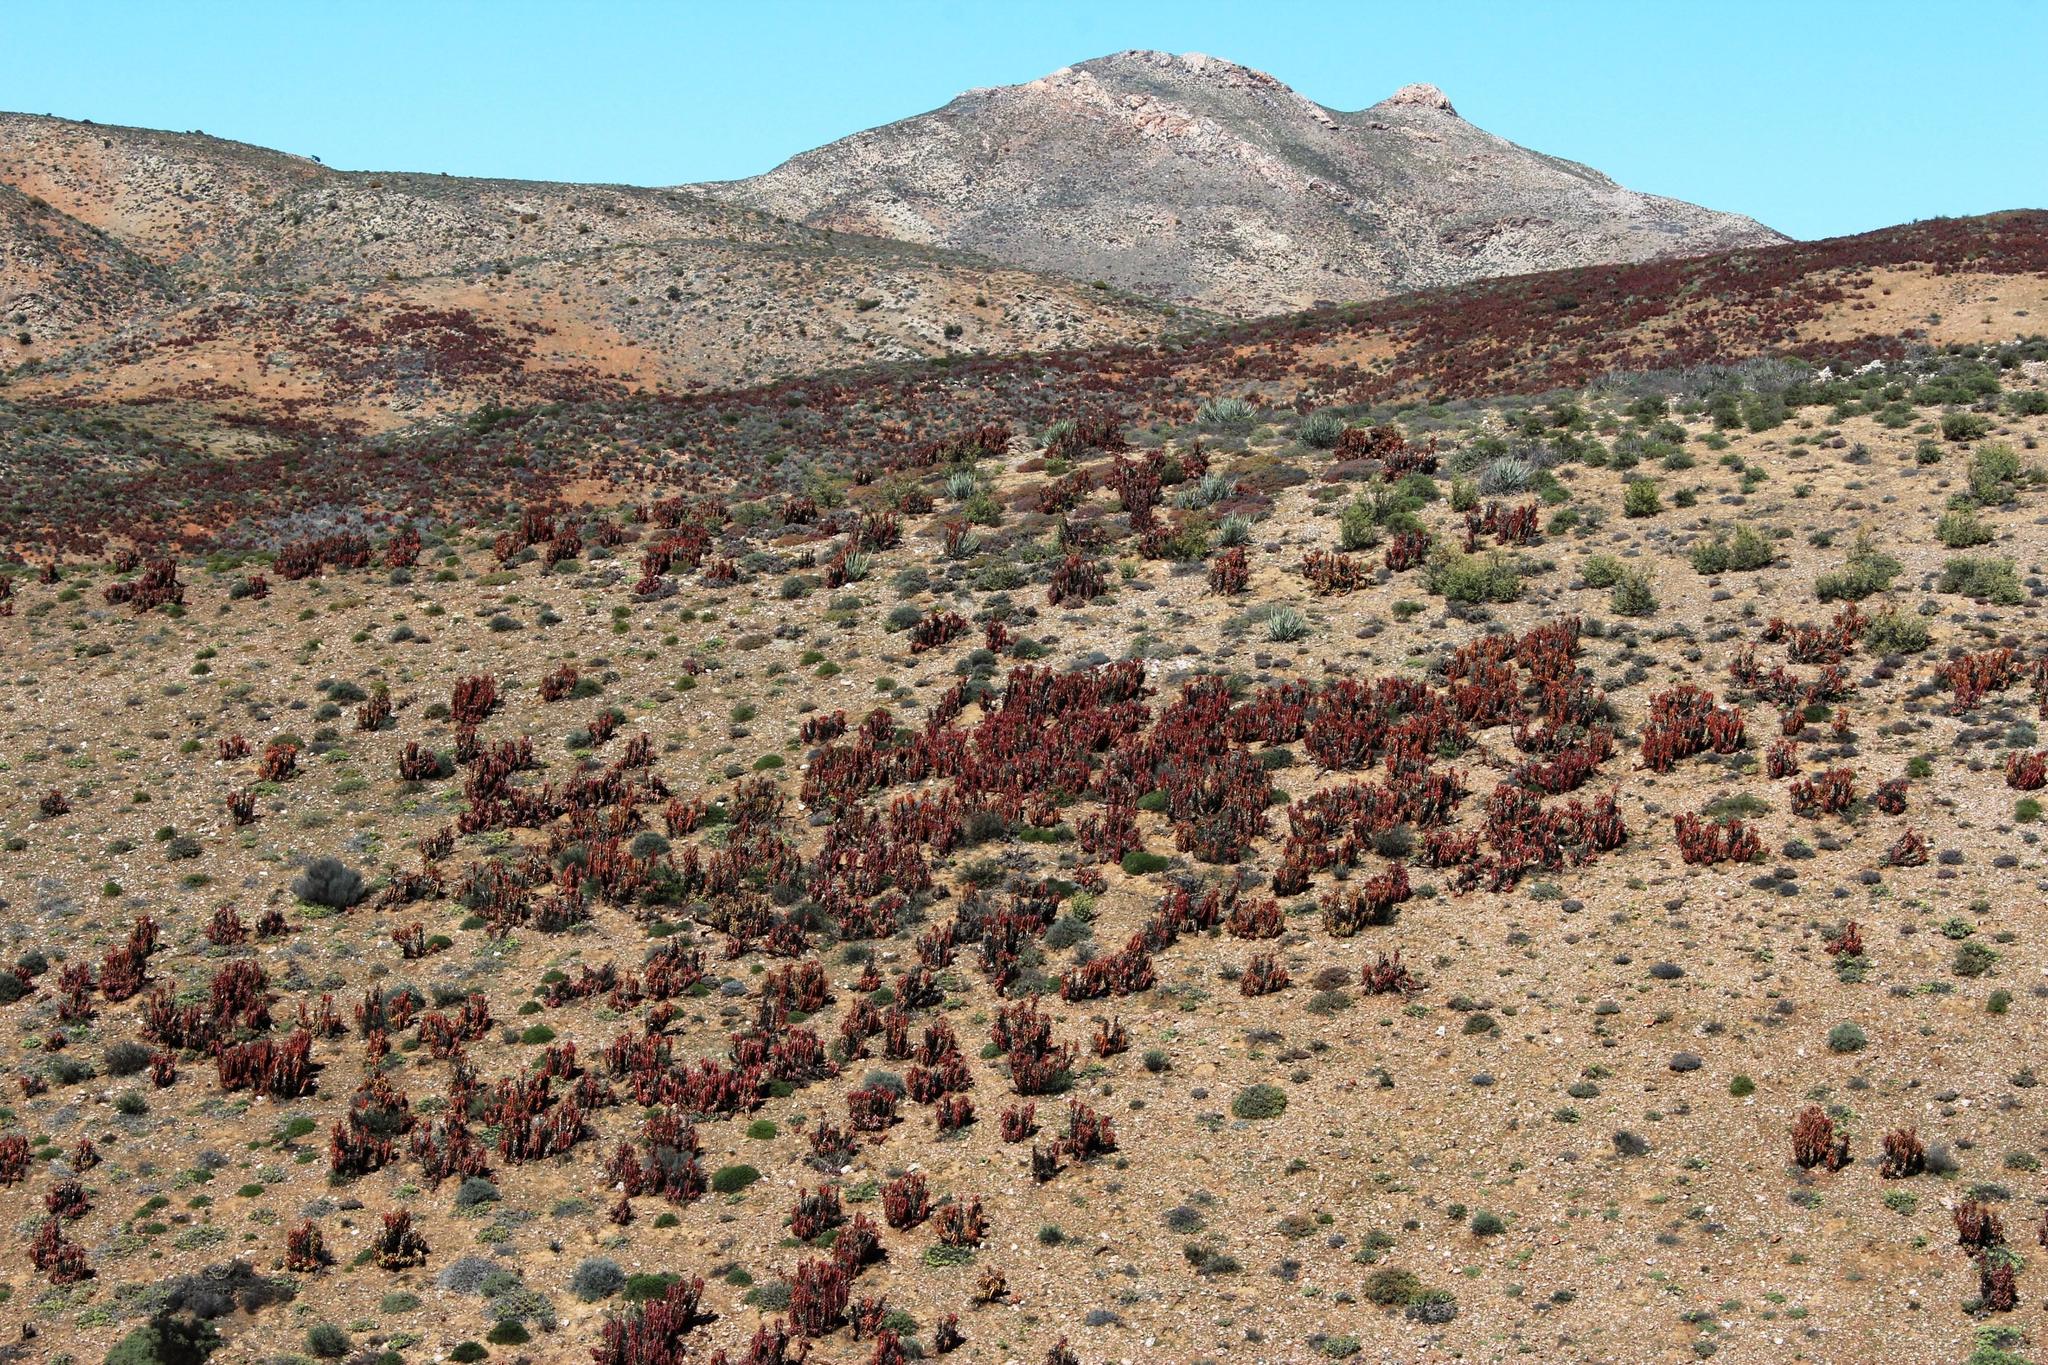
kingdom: Plantae
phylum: Tracheophyta
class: Liliopsida
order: Asparagales
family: Asphodelaceae
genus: Aloe
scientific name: Aloe pearsonii
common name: Pearson's aloe
